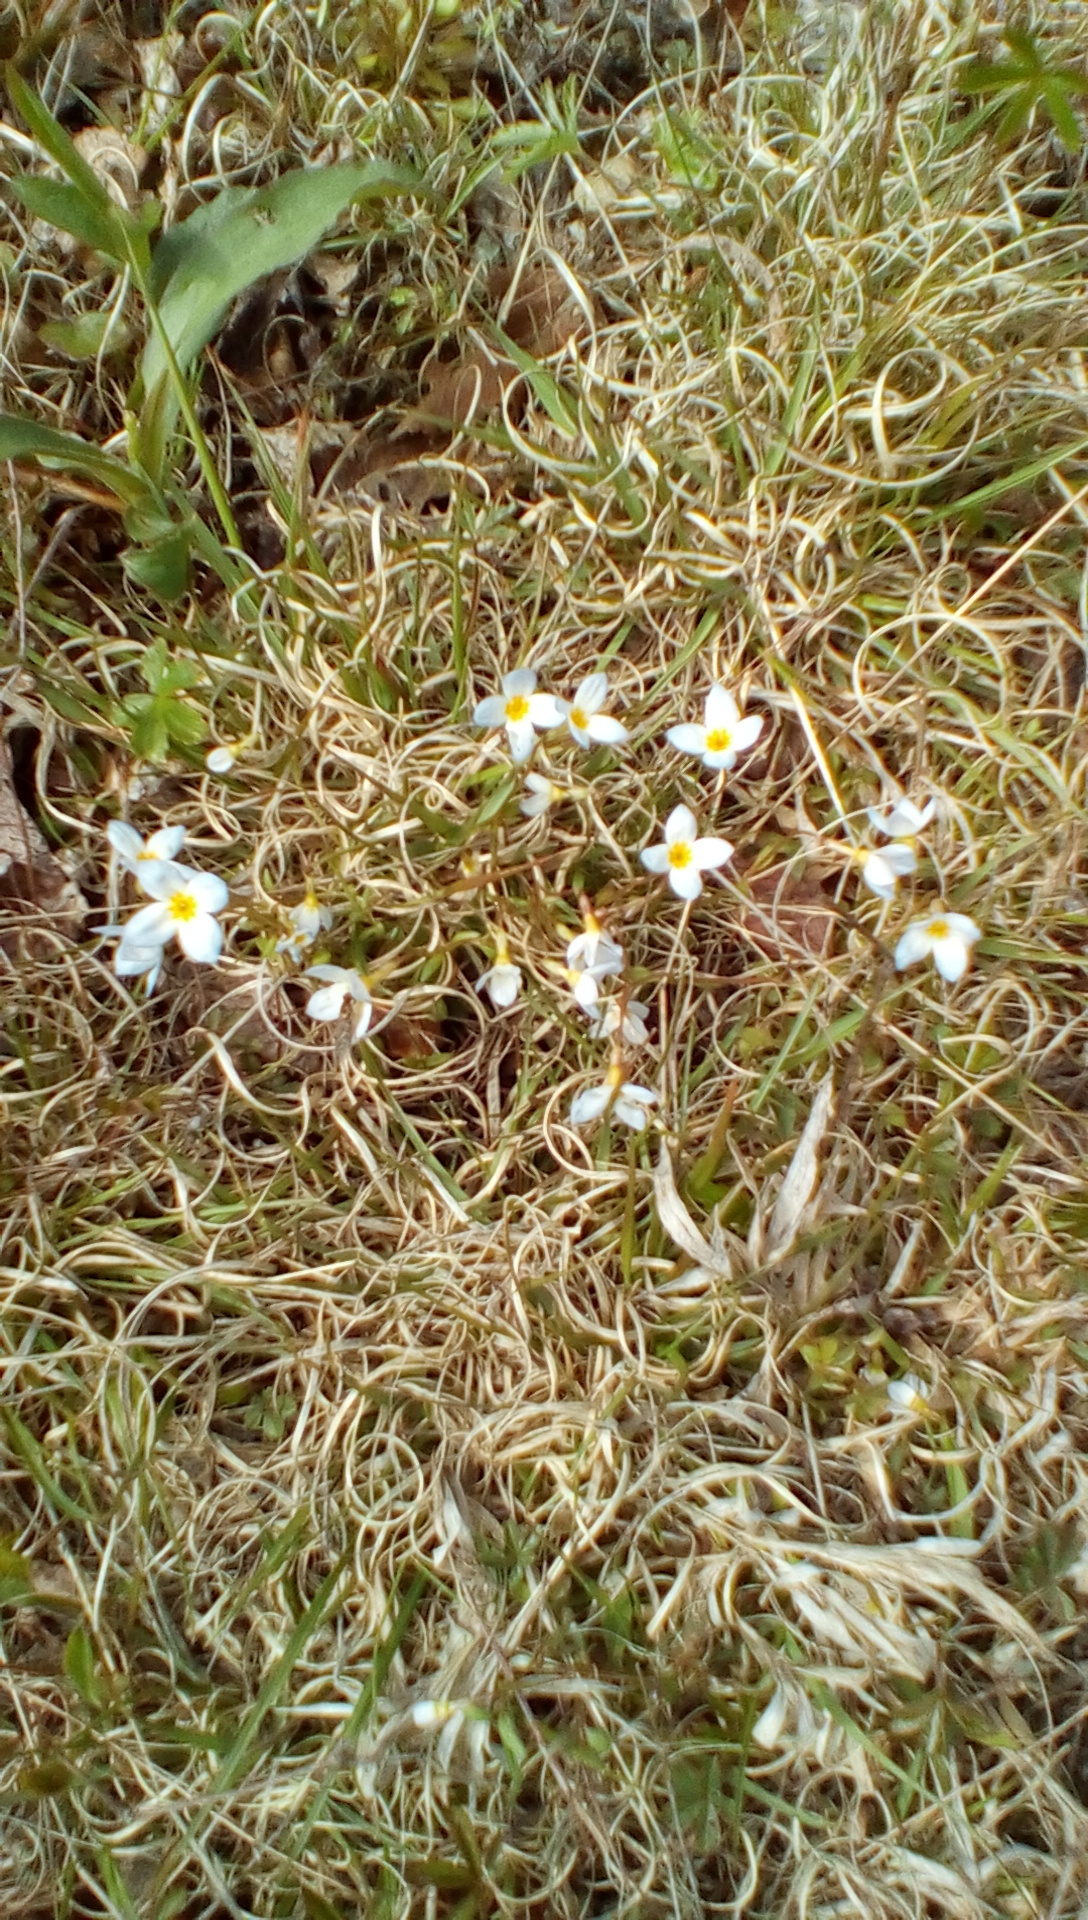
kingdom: Plantae
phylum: Tracheophyta
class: Magnoliopsida
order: Gentianales
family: Rubiaceae
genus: Houstonia
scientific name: Houstonia caerulea
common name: Bluets
